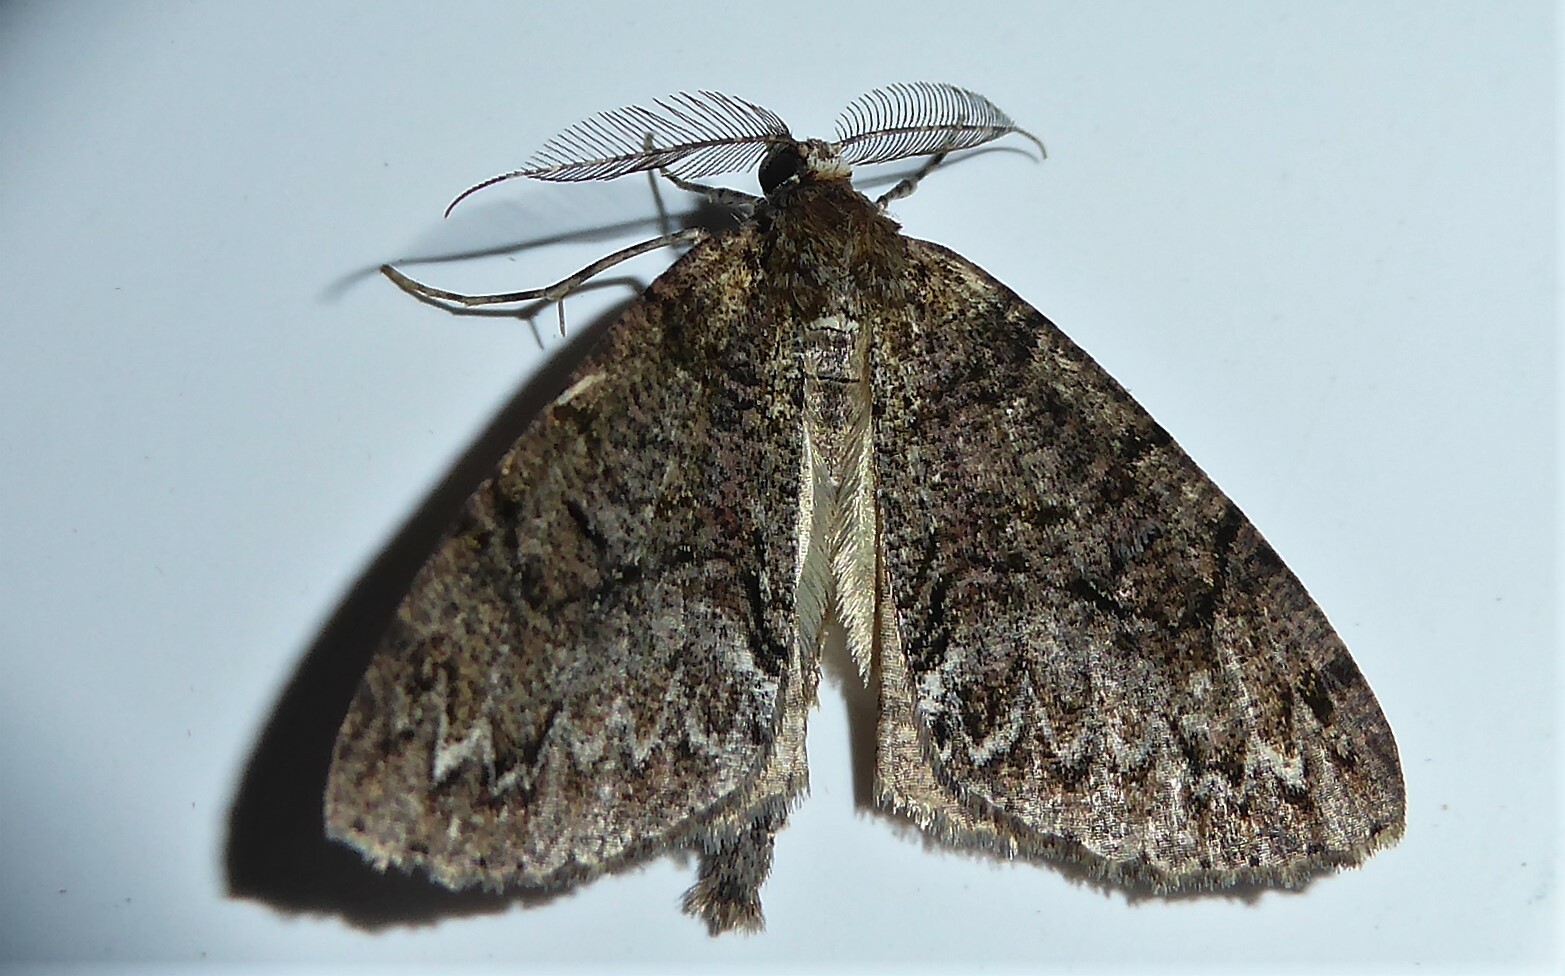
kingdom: Animalia
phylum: Arthropoda
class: Insecta
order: Lepidoptera
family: Geometridae
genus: Pseudocoremia
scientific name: Pseudocoremia suavis
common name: Common forest looper
